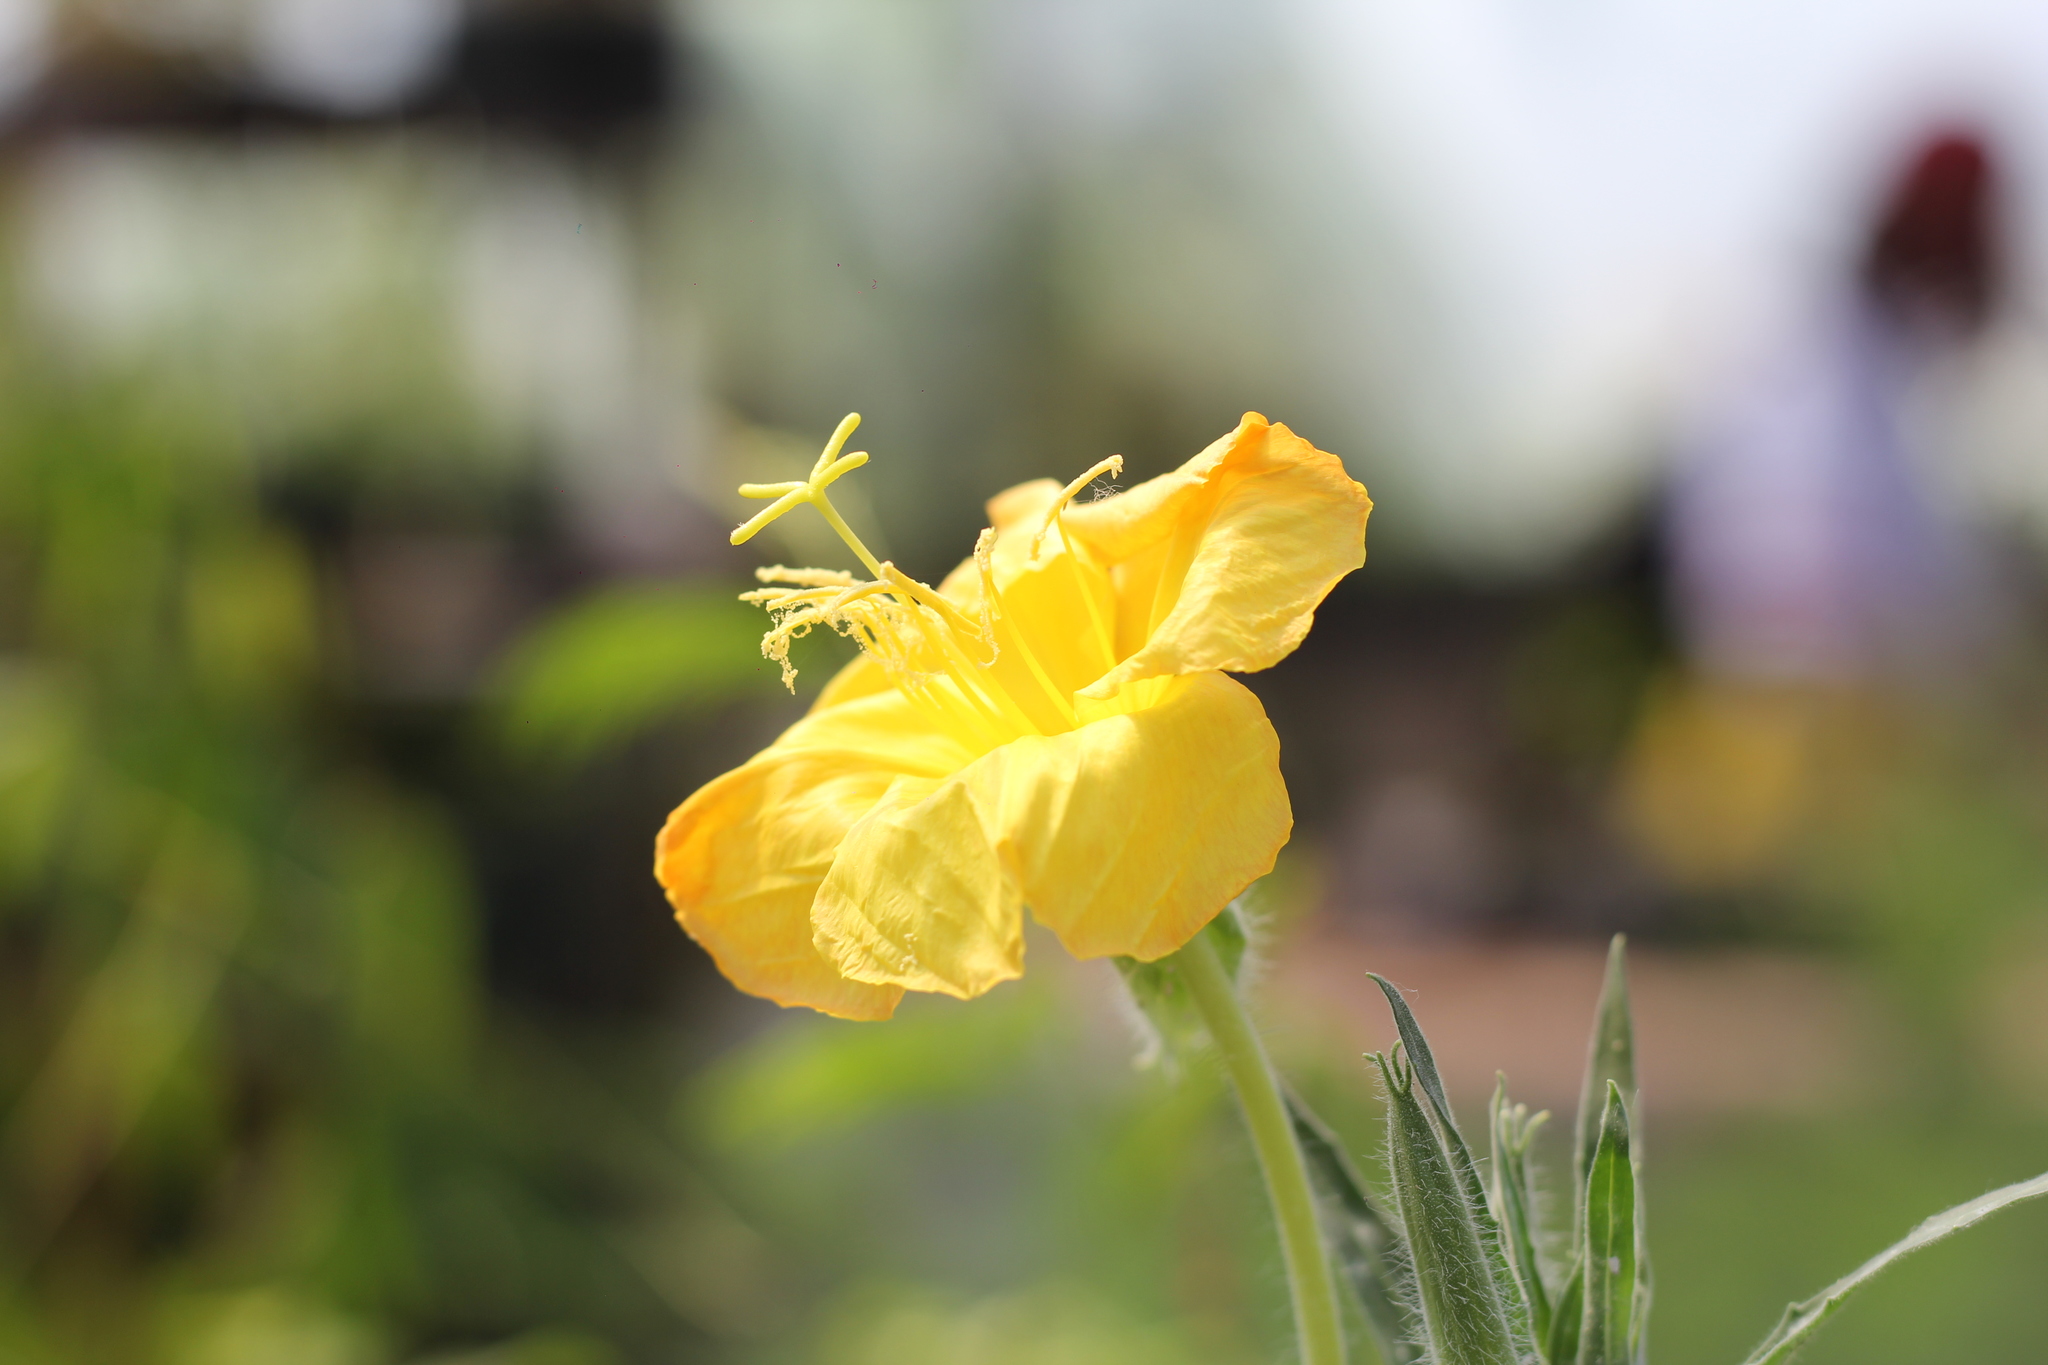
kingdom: Plantae
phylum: Tracheophyta
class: Magnoliopsida
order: Myrtales
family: Onagraceae
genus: Oenothera
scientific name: Oenothera affinis
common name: Longflower evening primrose
